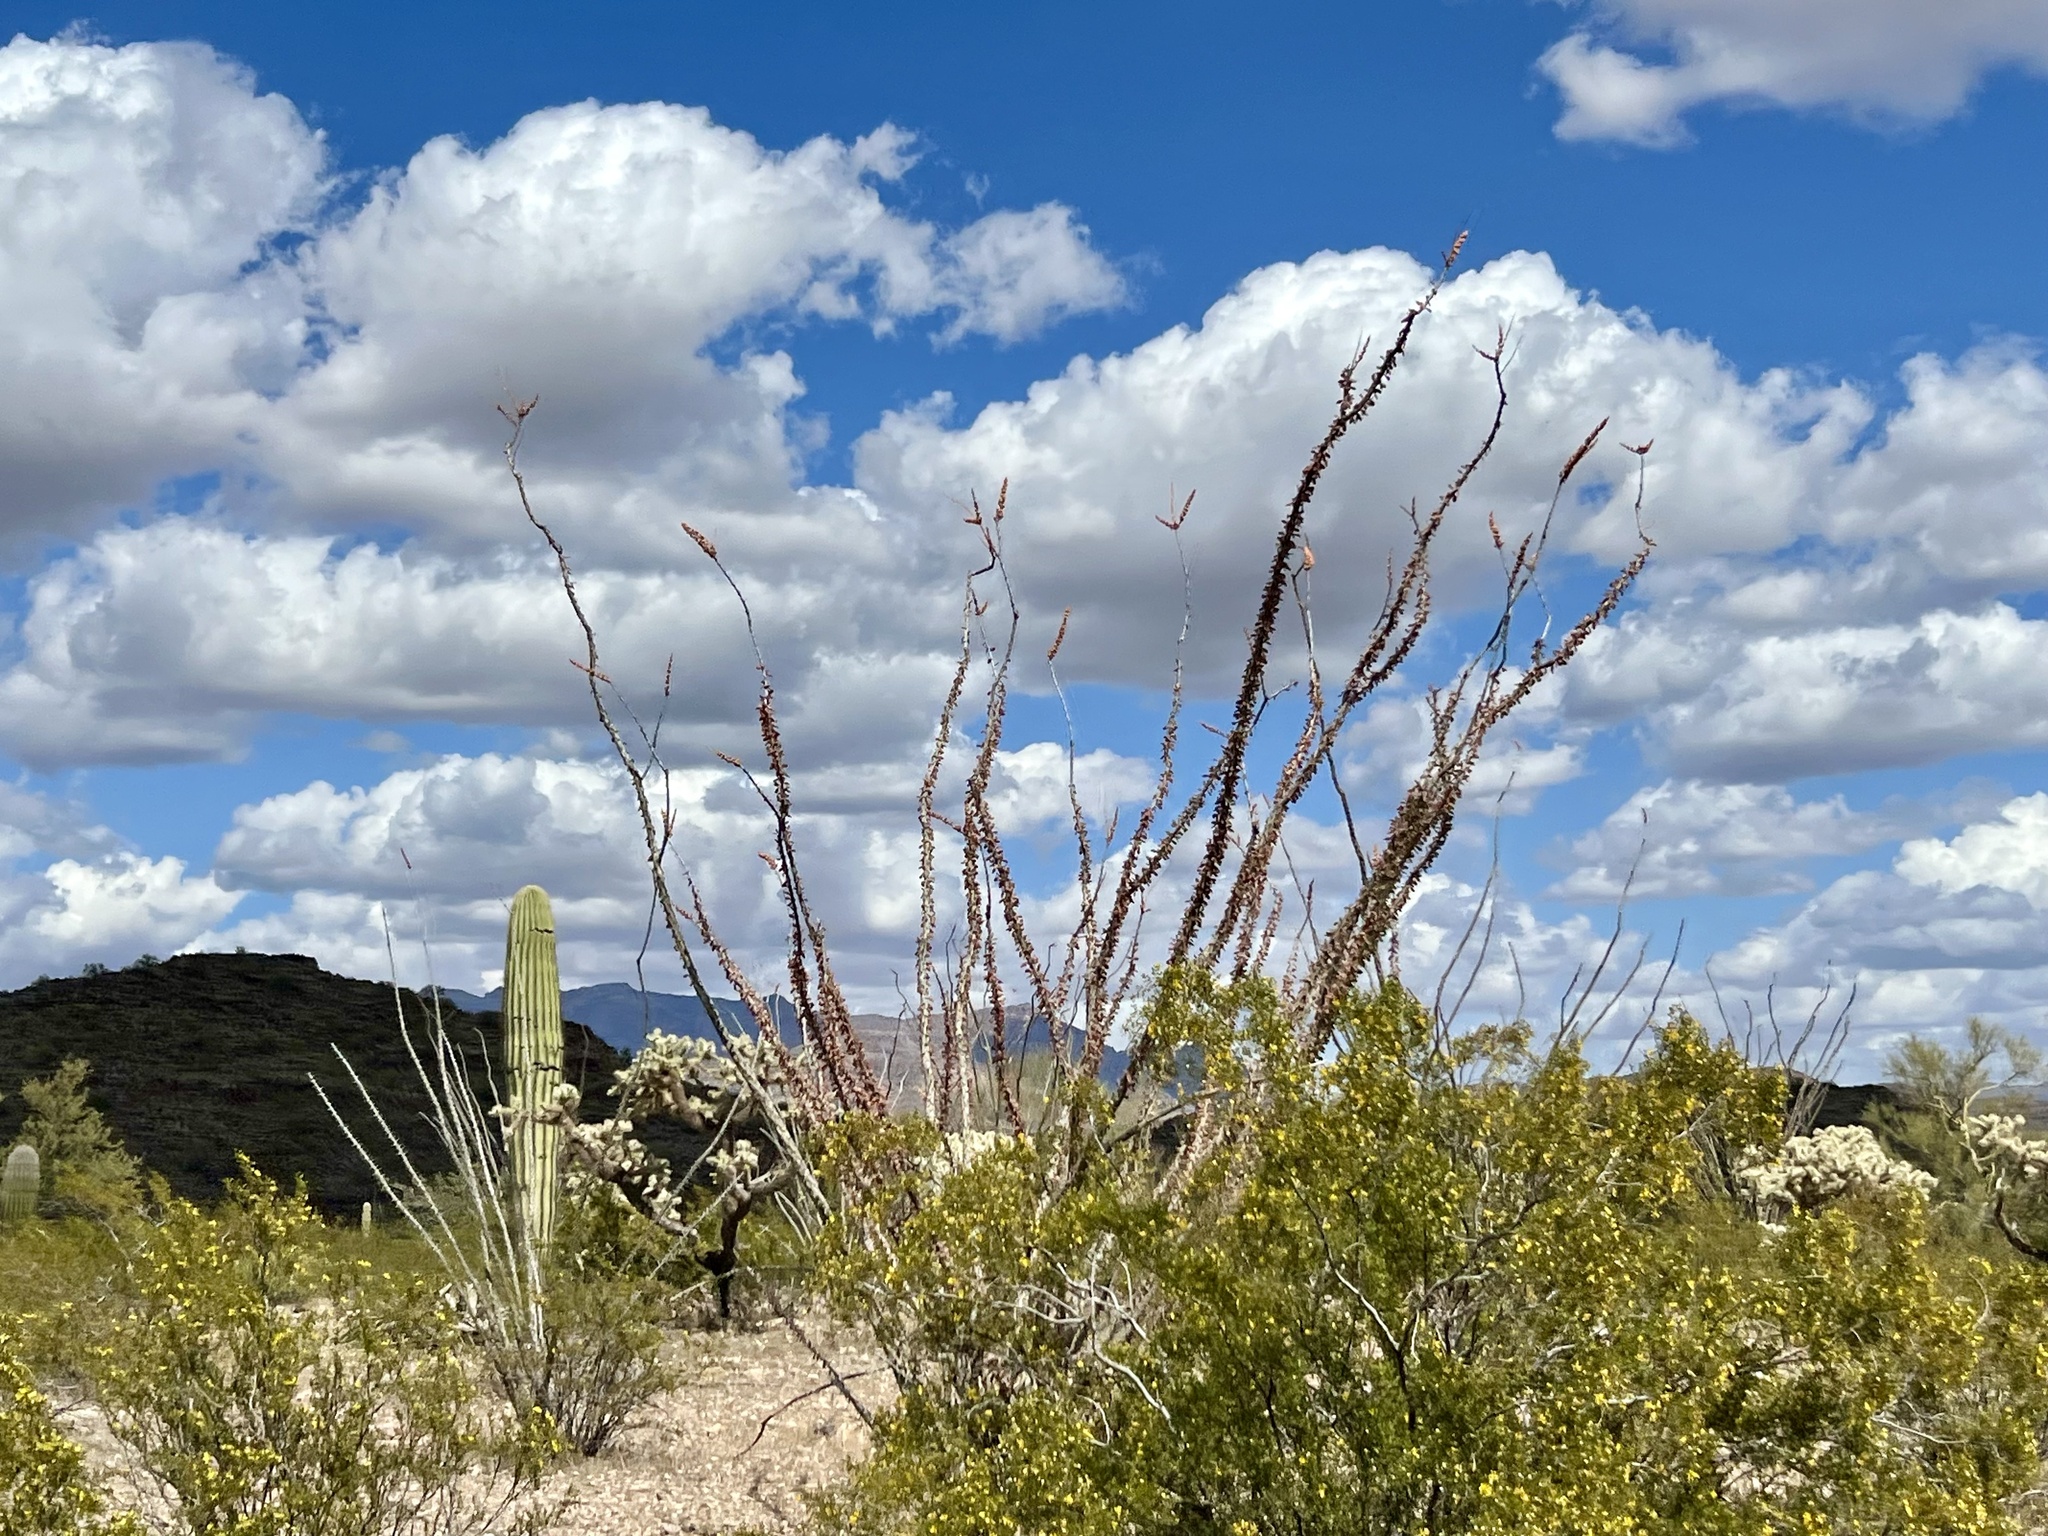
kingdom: Plantae
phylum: Tracheophyta
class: Magnoliopsida
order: Ericales
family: Fouquieriaceae
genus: Fouquieria
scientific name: Fouquieria splendens
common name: Vine-cactus
